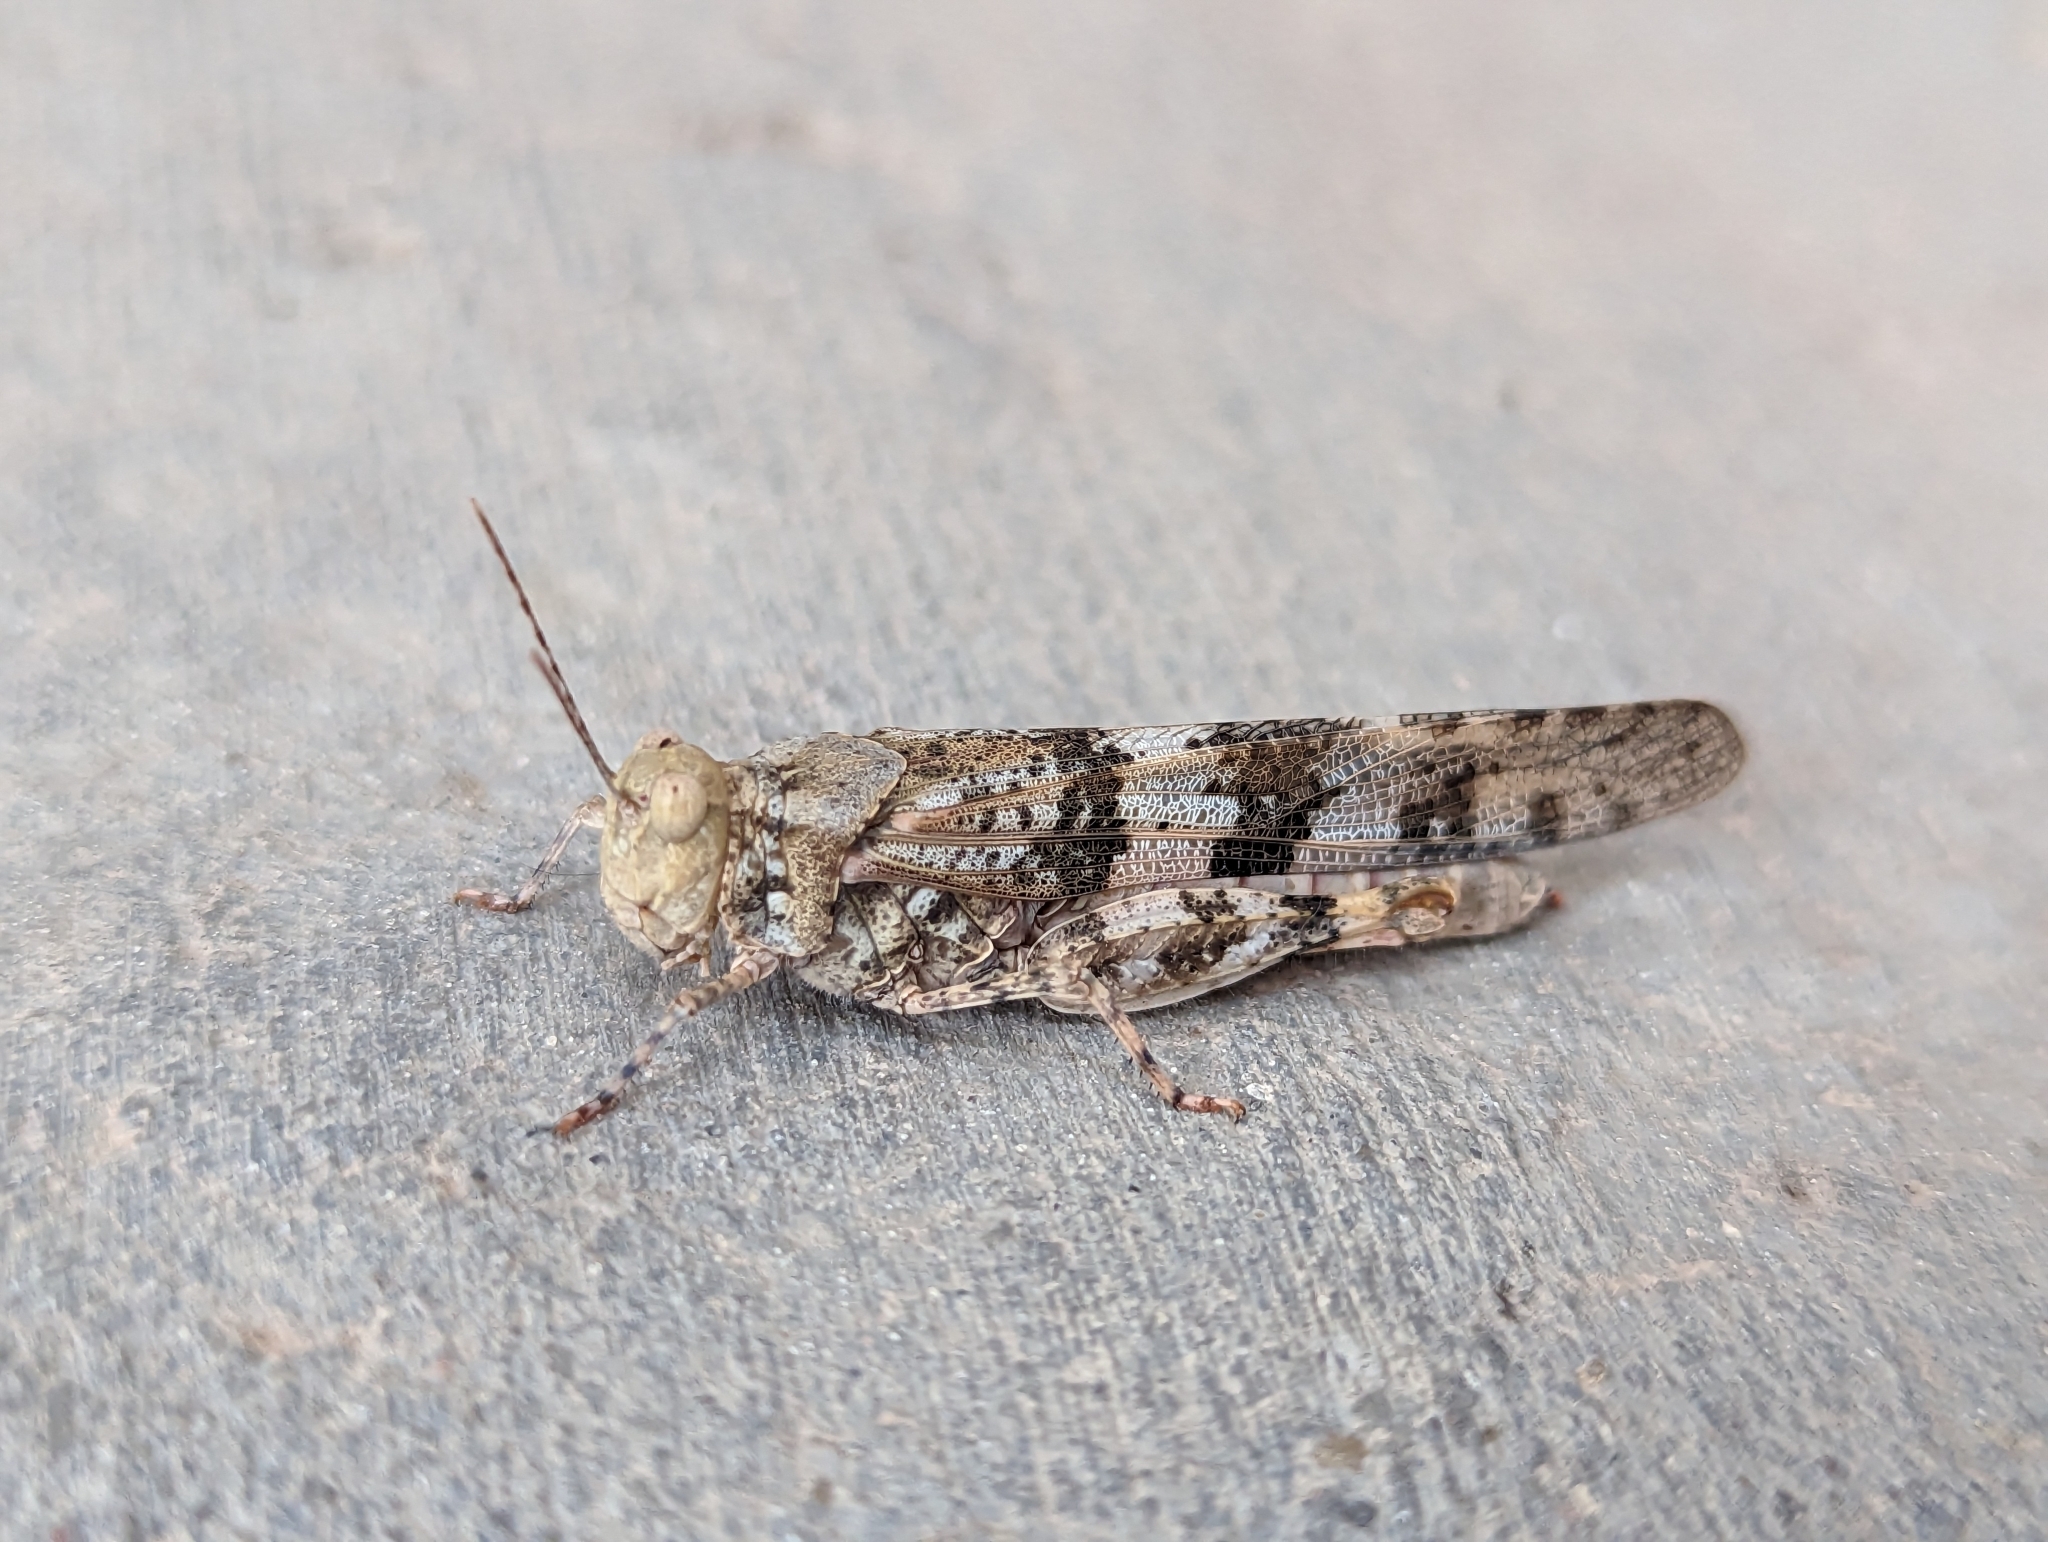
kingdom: Animalia
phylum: Arthropoda
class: Insecta
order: Orthoptera
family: Acrididae
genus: Trimerotropis
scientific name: Trimerotropis pallidipennis
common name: Pallid-winged grasshopper
